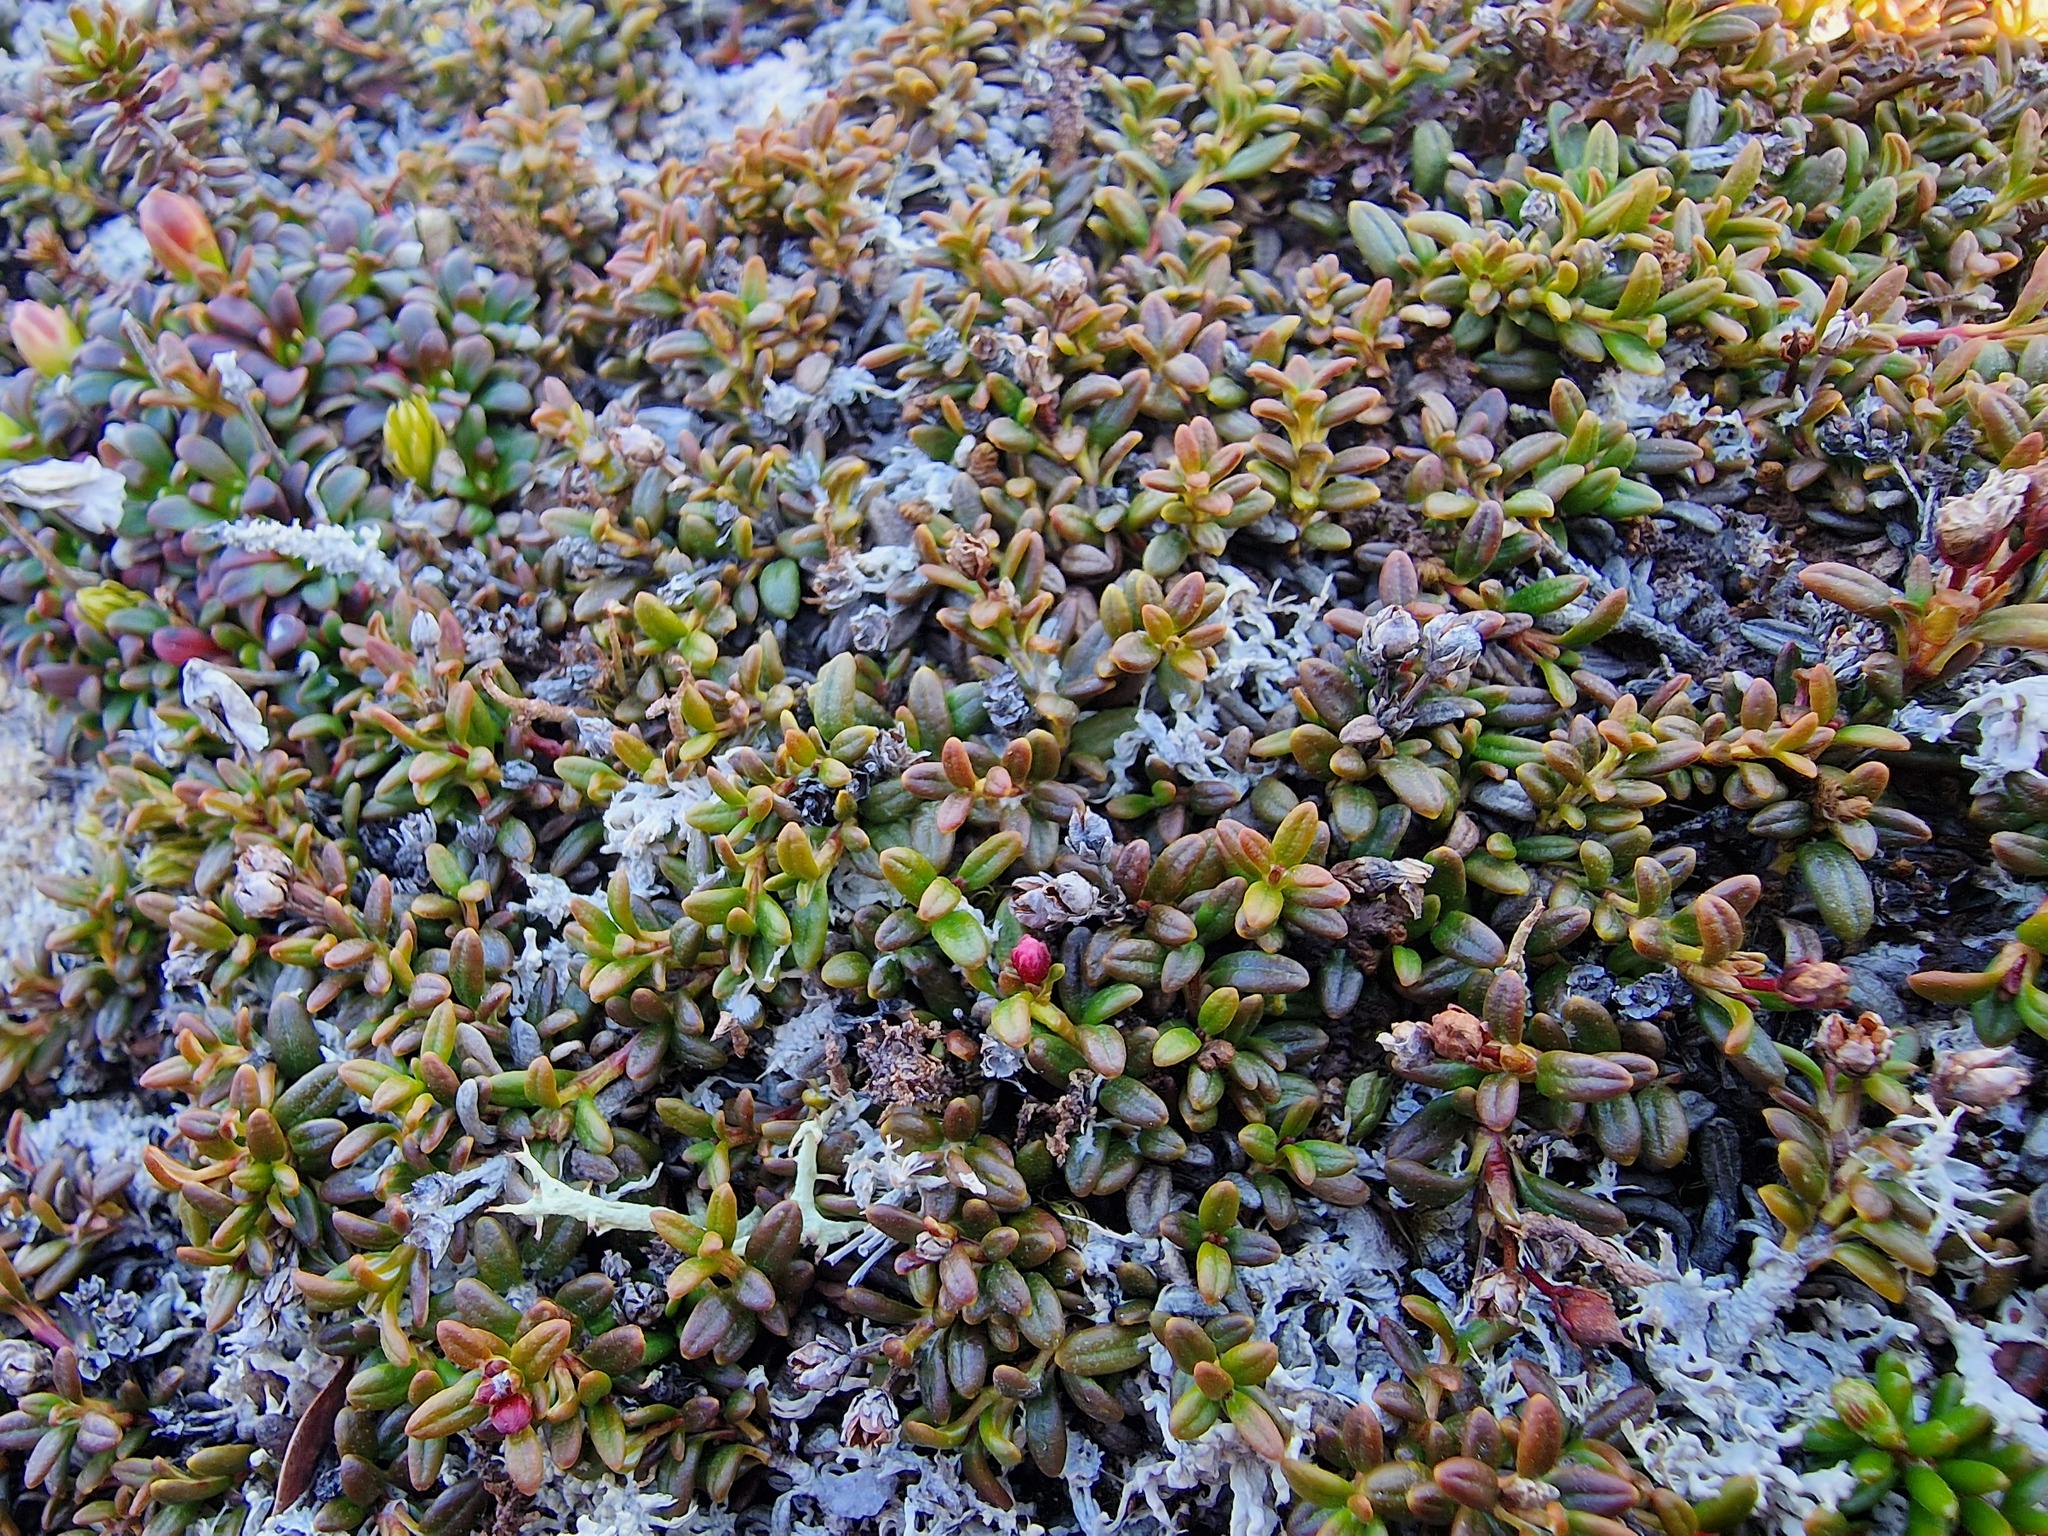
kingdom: Plantae
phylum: Tracheophyta
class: Magnoliopsida
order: Ericales
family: Ericaceae
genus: Kalmia
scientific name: Kalmia procumbens
